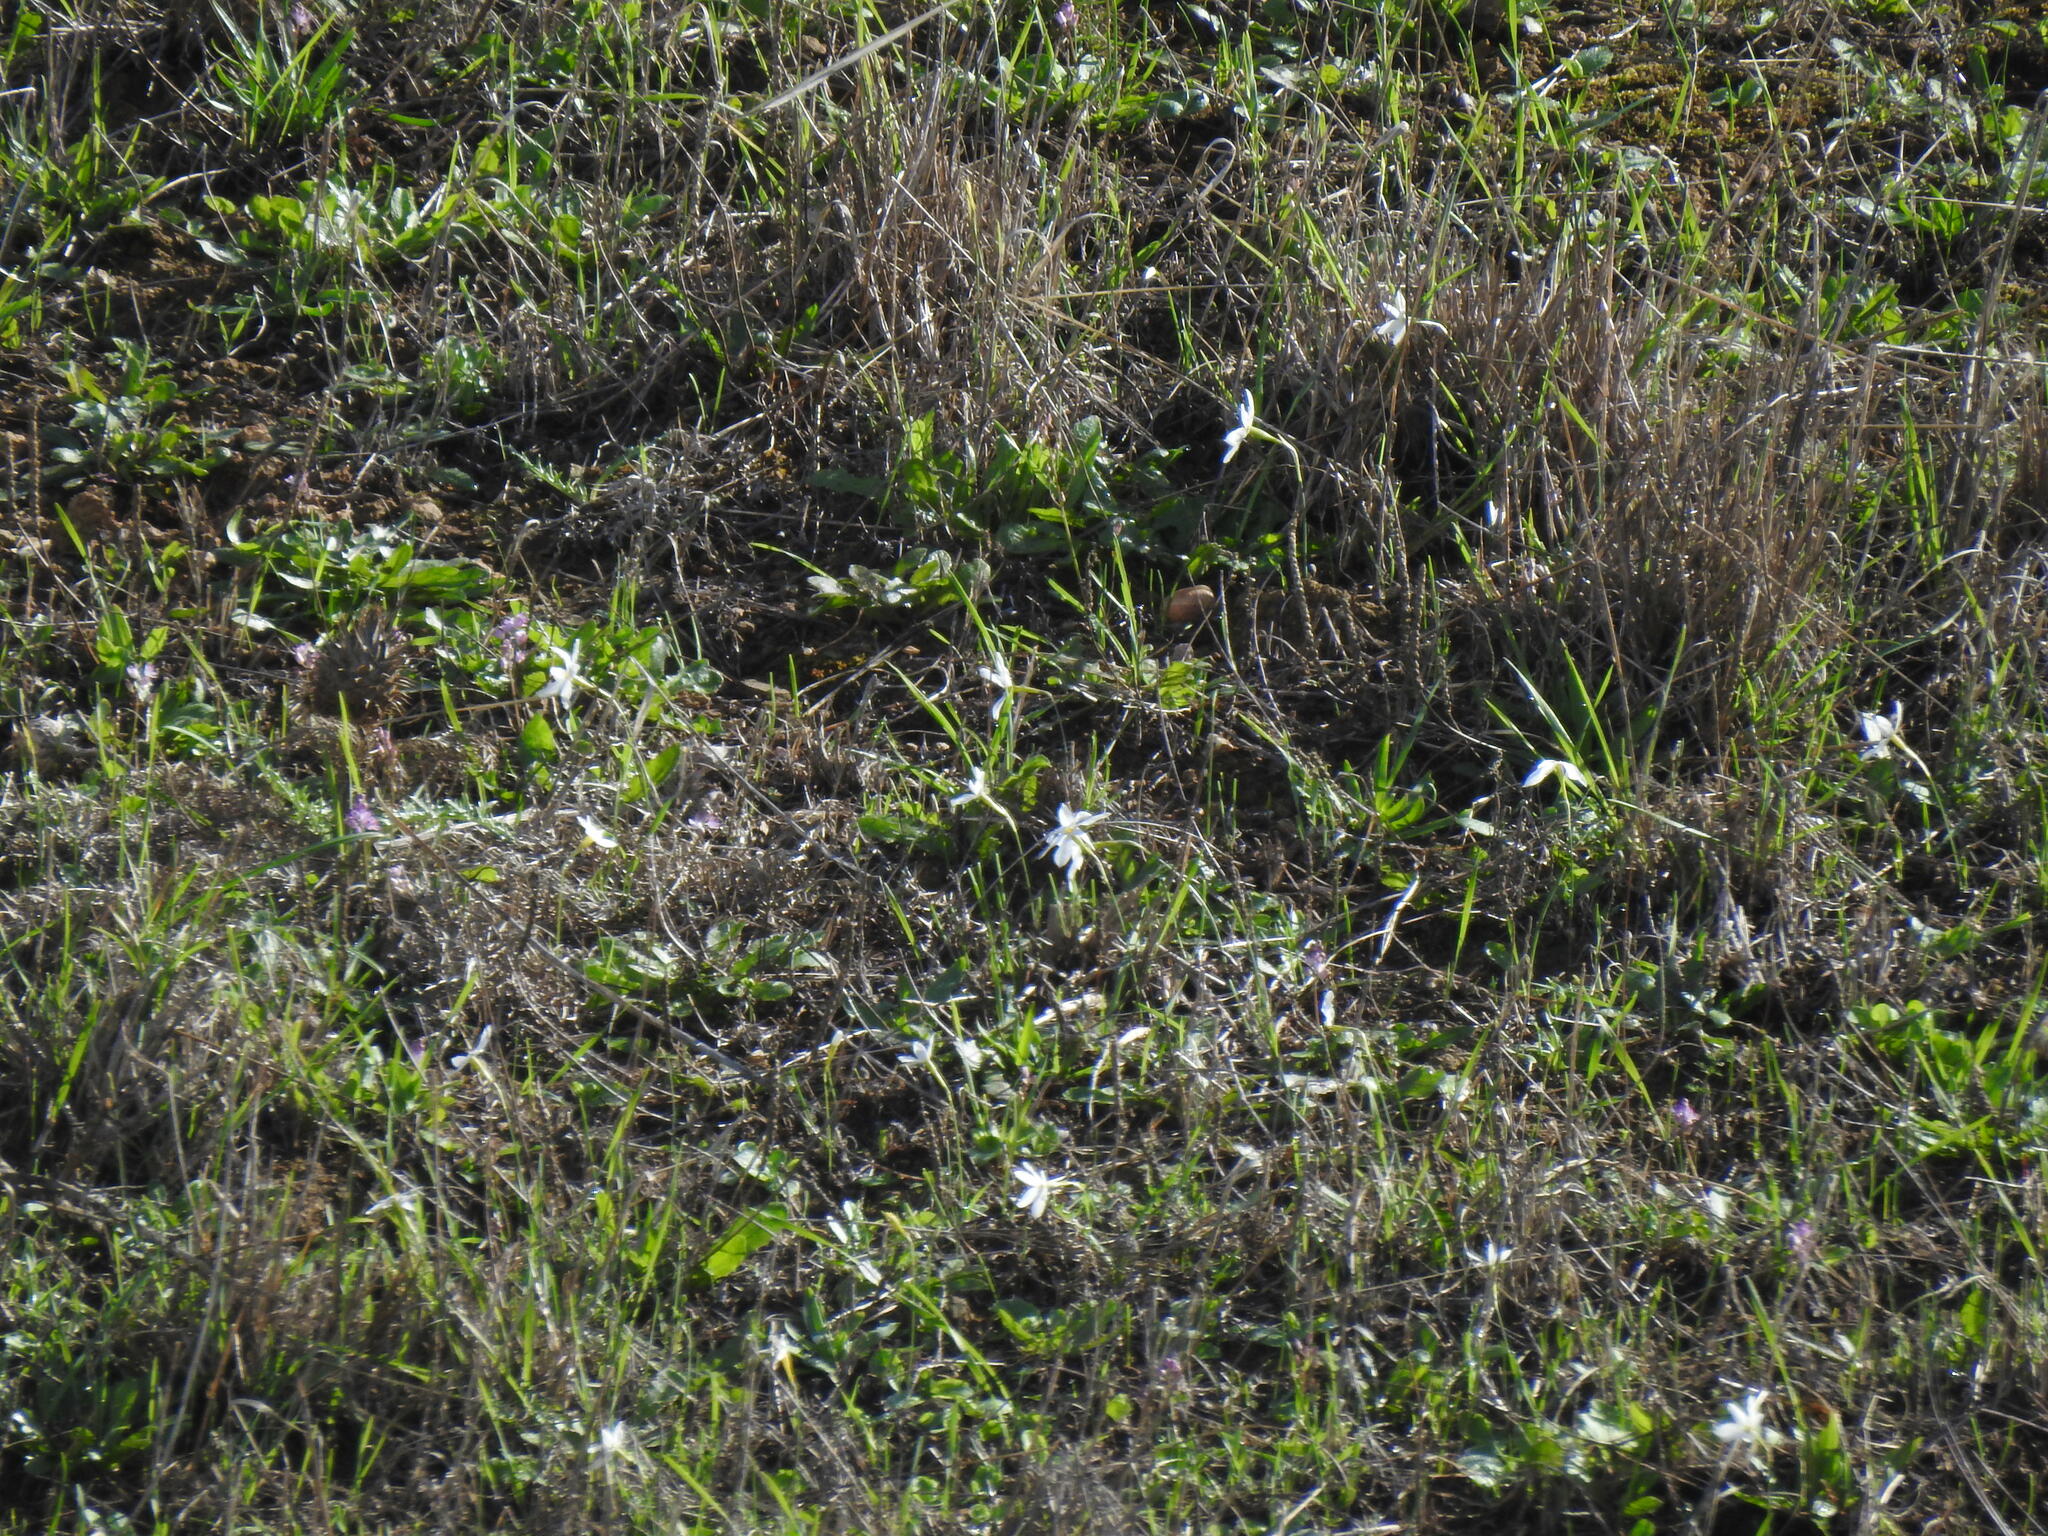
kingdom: Plantae
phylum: Tracheophyta
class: Liliopsida
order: Asparagales
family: Amaryllidaceae
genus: Narcissus
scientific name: Narcissus serotinus
